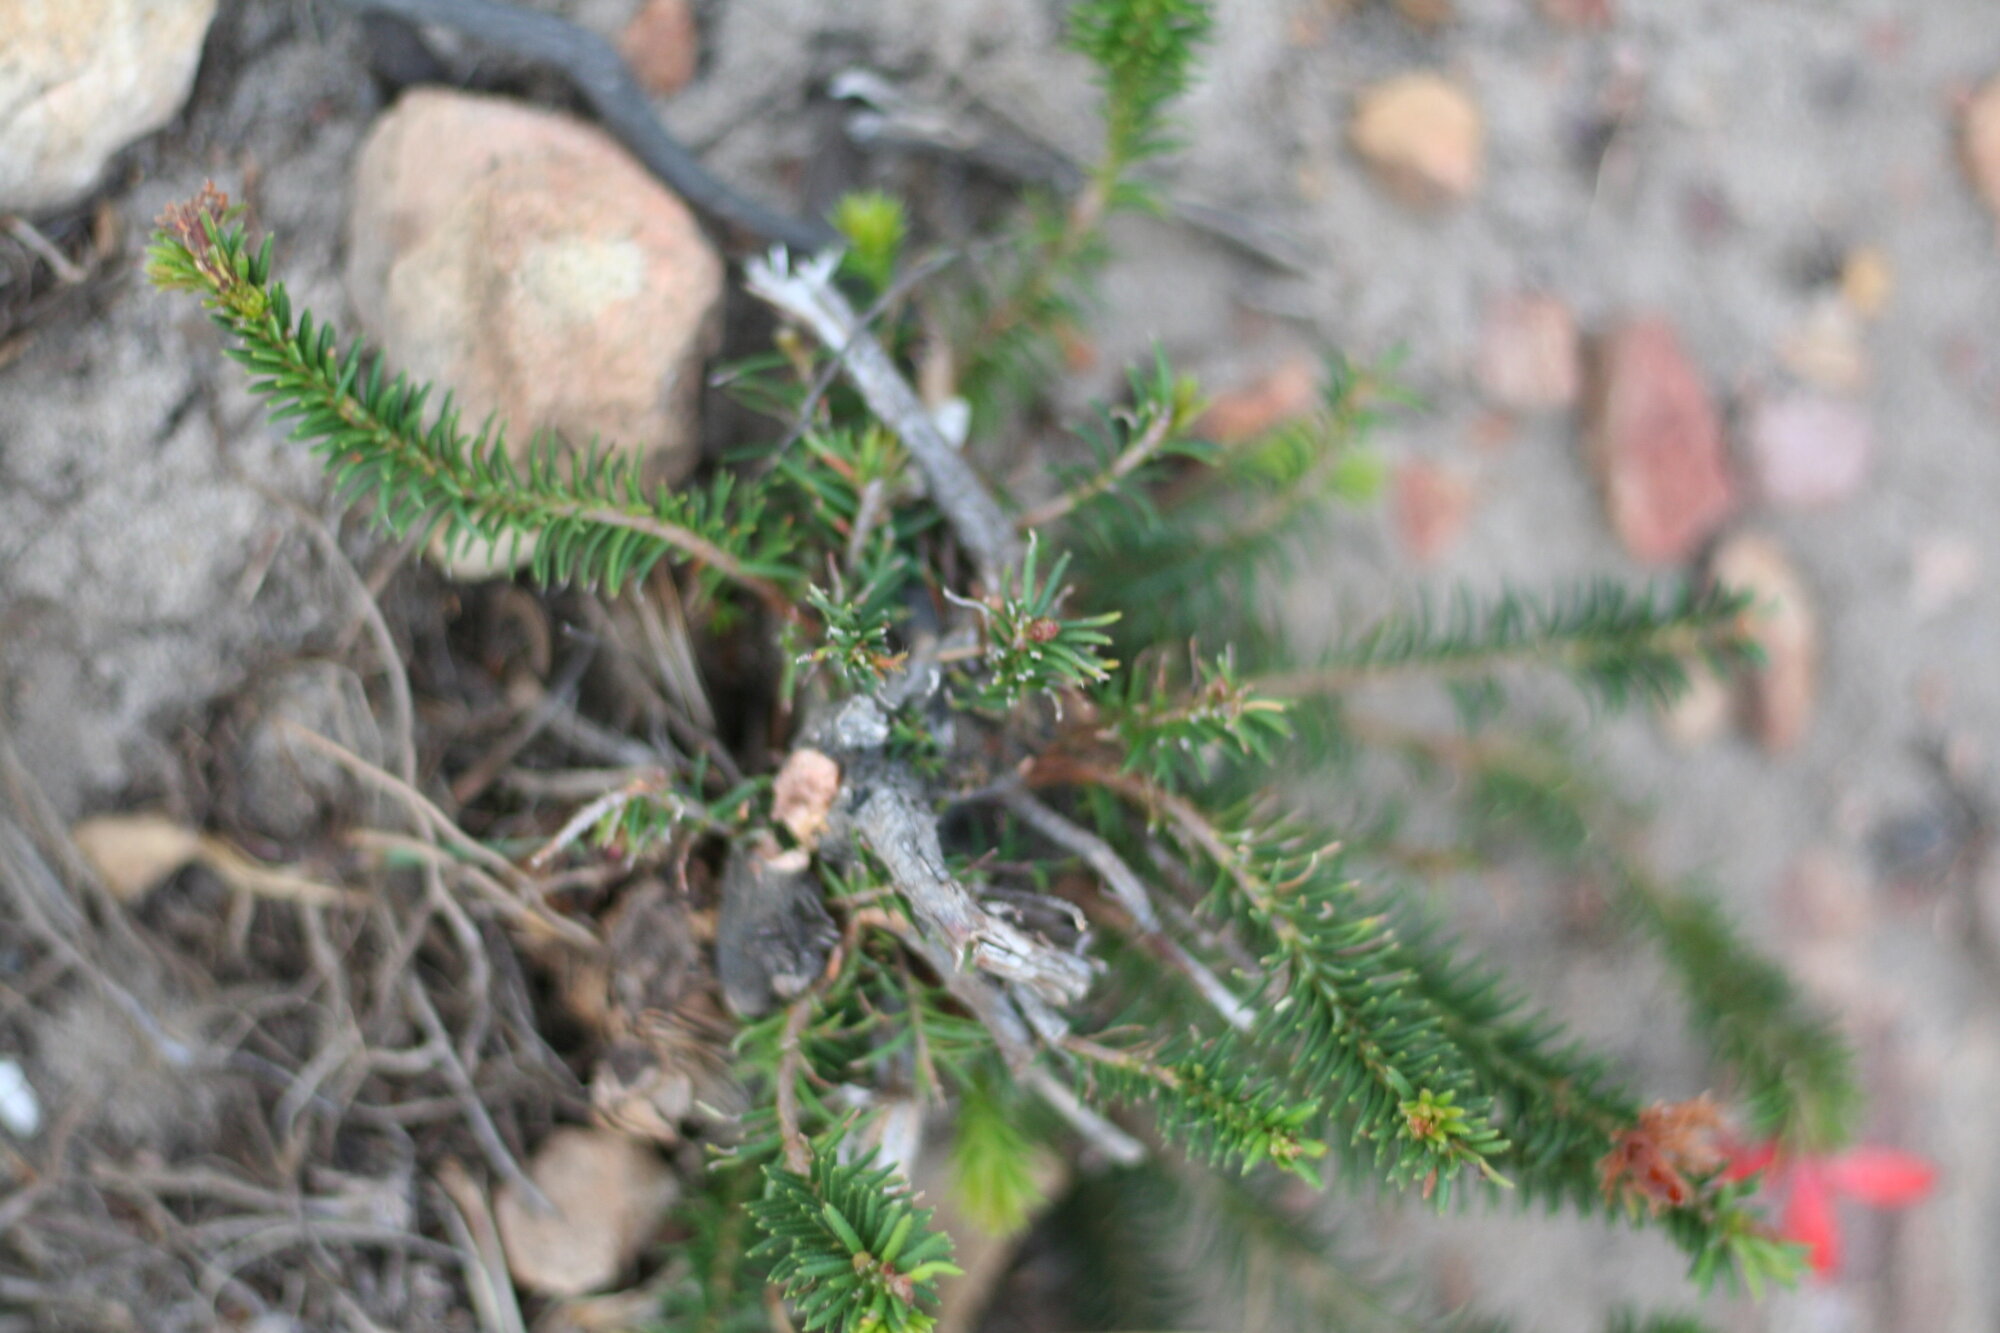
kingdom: Plantae
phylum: Tracheophyta
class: Magnoliopsida
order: Ericales
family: Ericaceae
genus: Erica
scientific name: Erica cerinthoides
